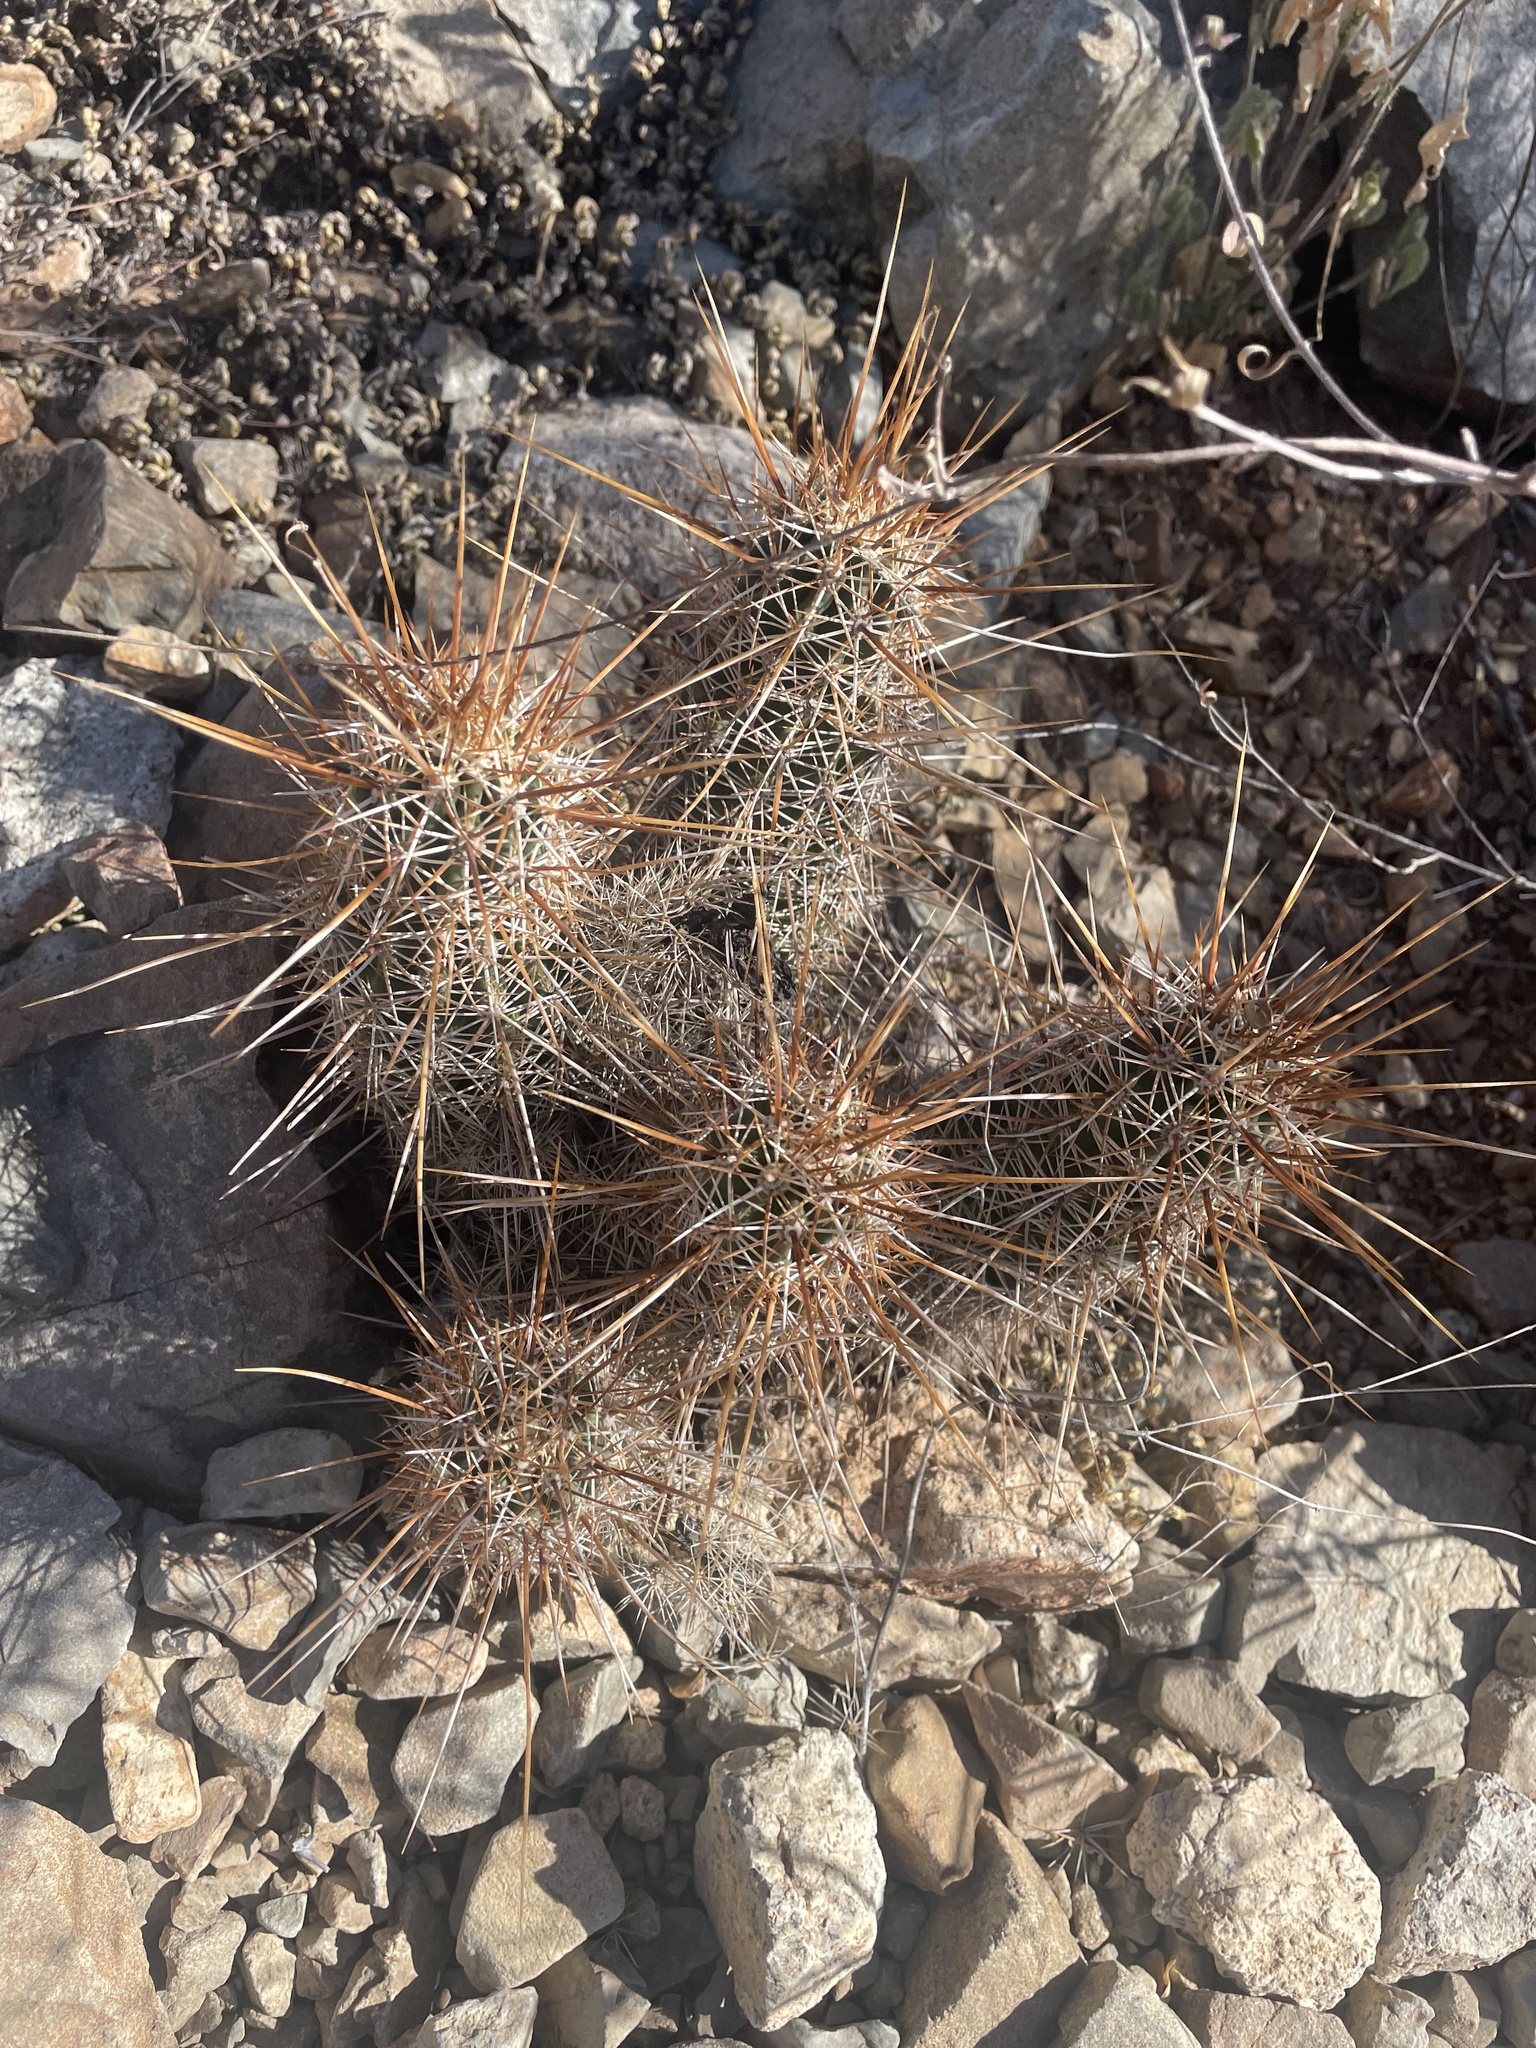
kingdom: Plantae
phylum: Tracheophyta
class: Magnoliopsida
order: Caryophyllales
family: Cactaceae
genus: Echinocereus
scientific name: Echinocereus engelmannii
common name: Engelmann's hedgehog cactus
